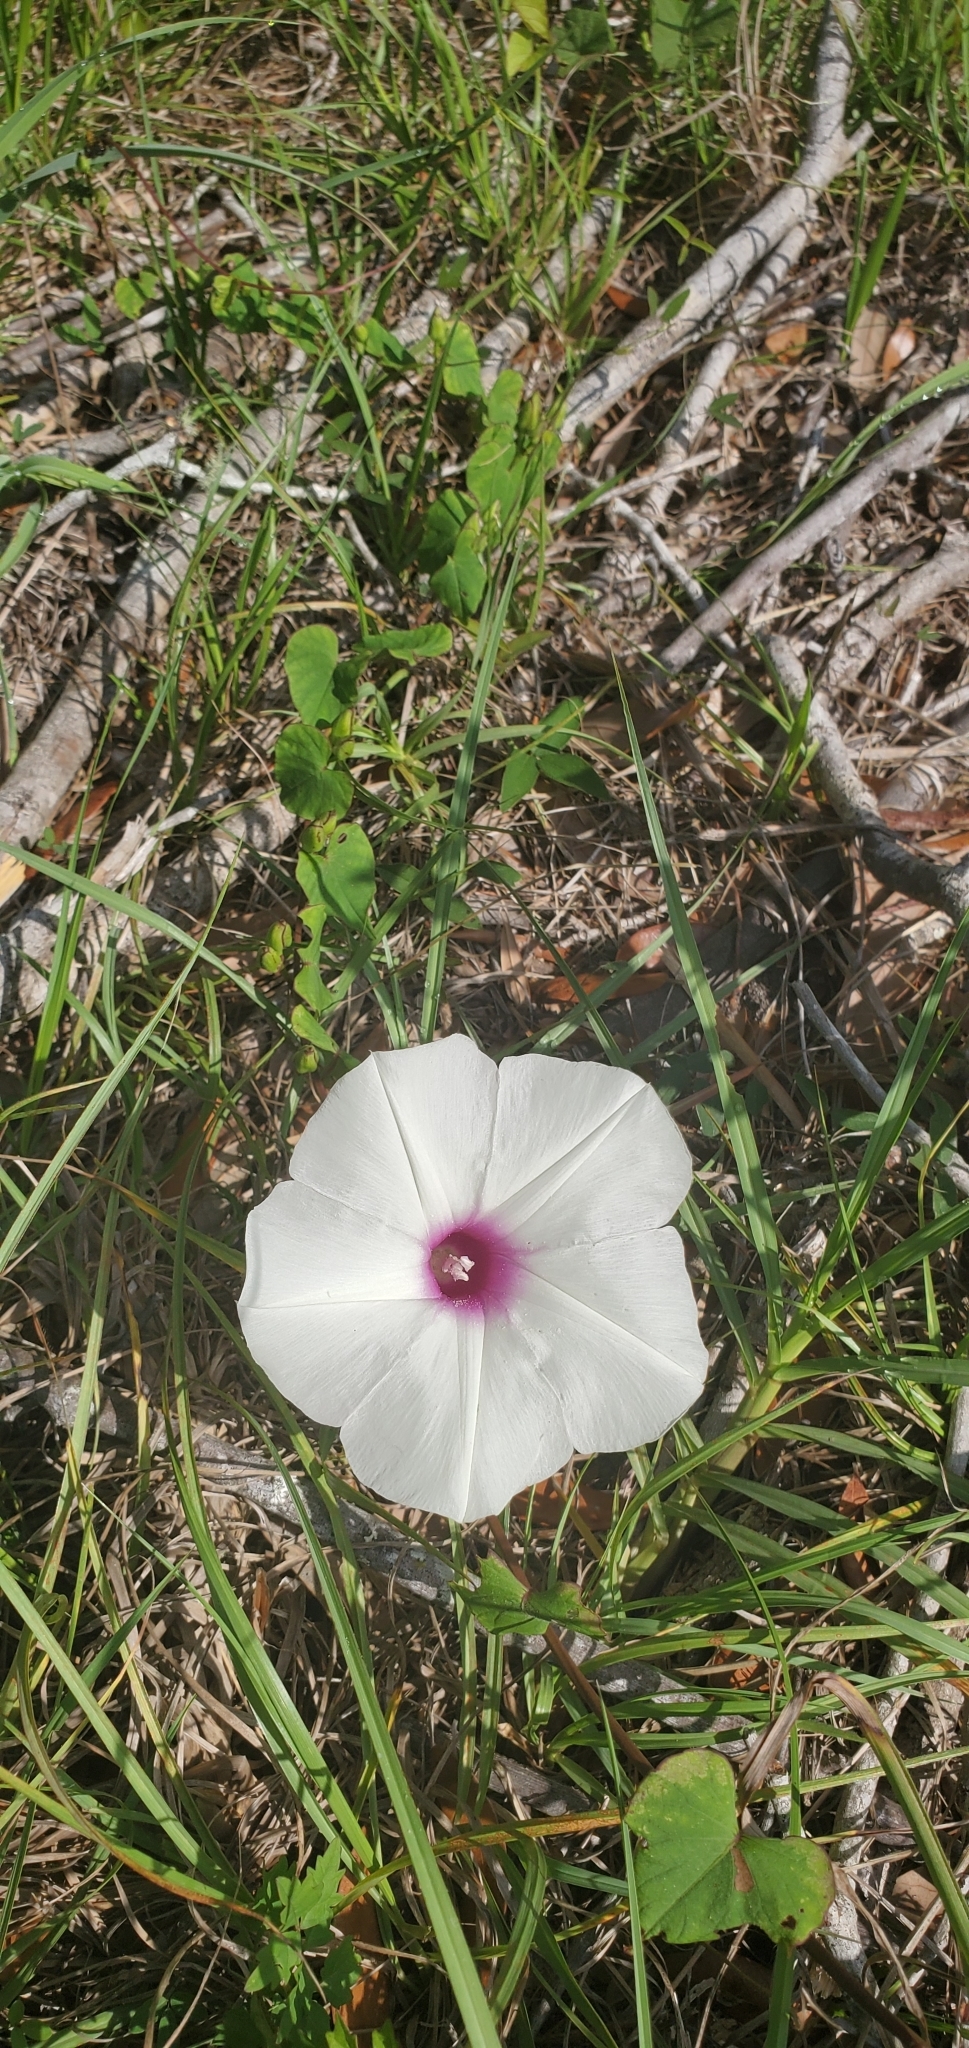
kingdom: Plantae
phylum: Tracheophyta
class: Magnoliopsida
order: Solanales
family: Convolvulaceae
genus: Ipomoea
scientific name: Ipomoea pandurata
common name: Man-of-the-earth
